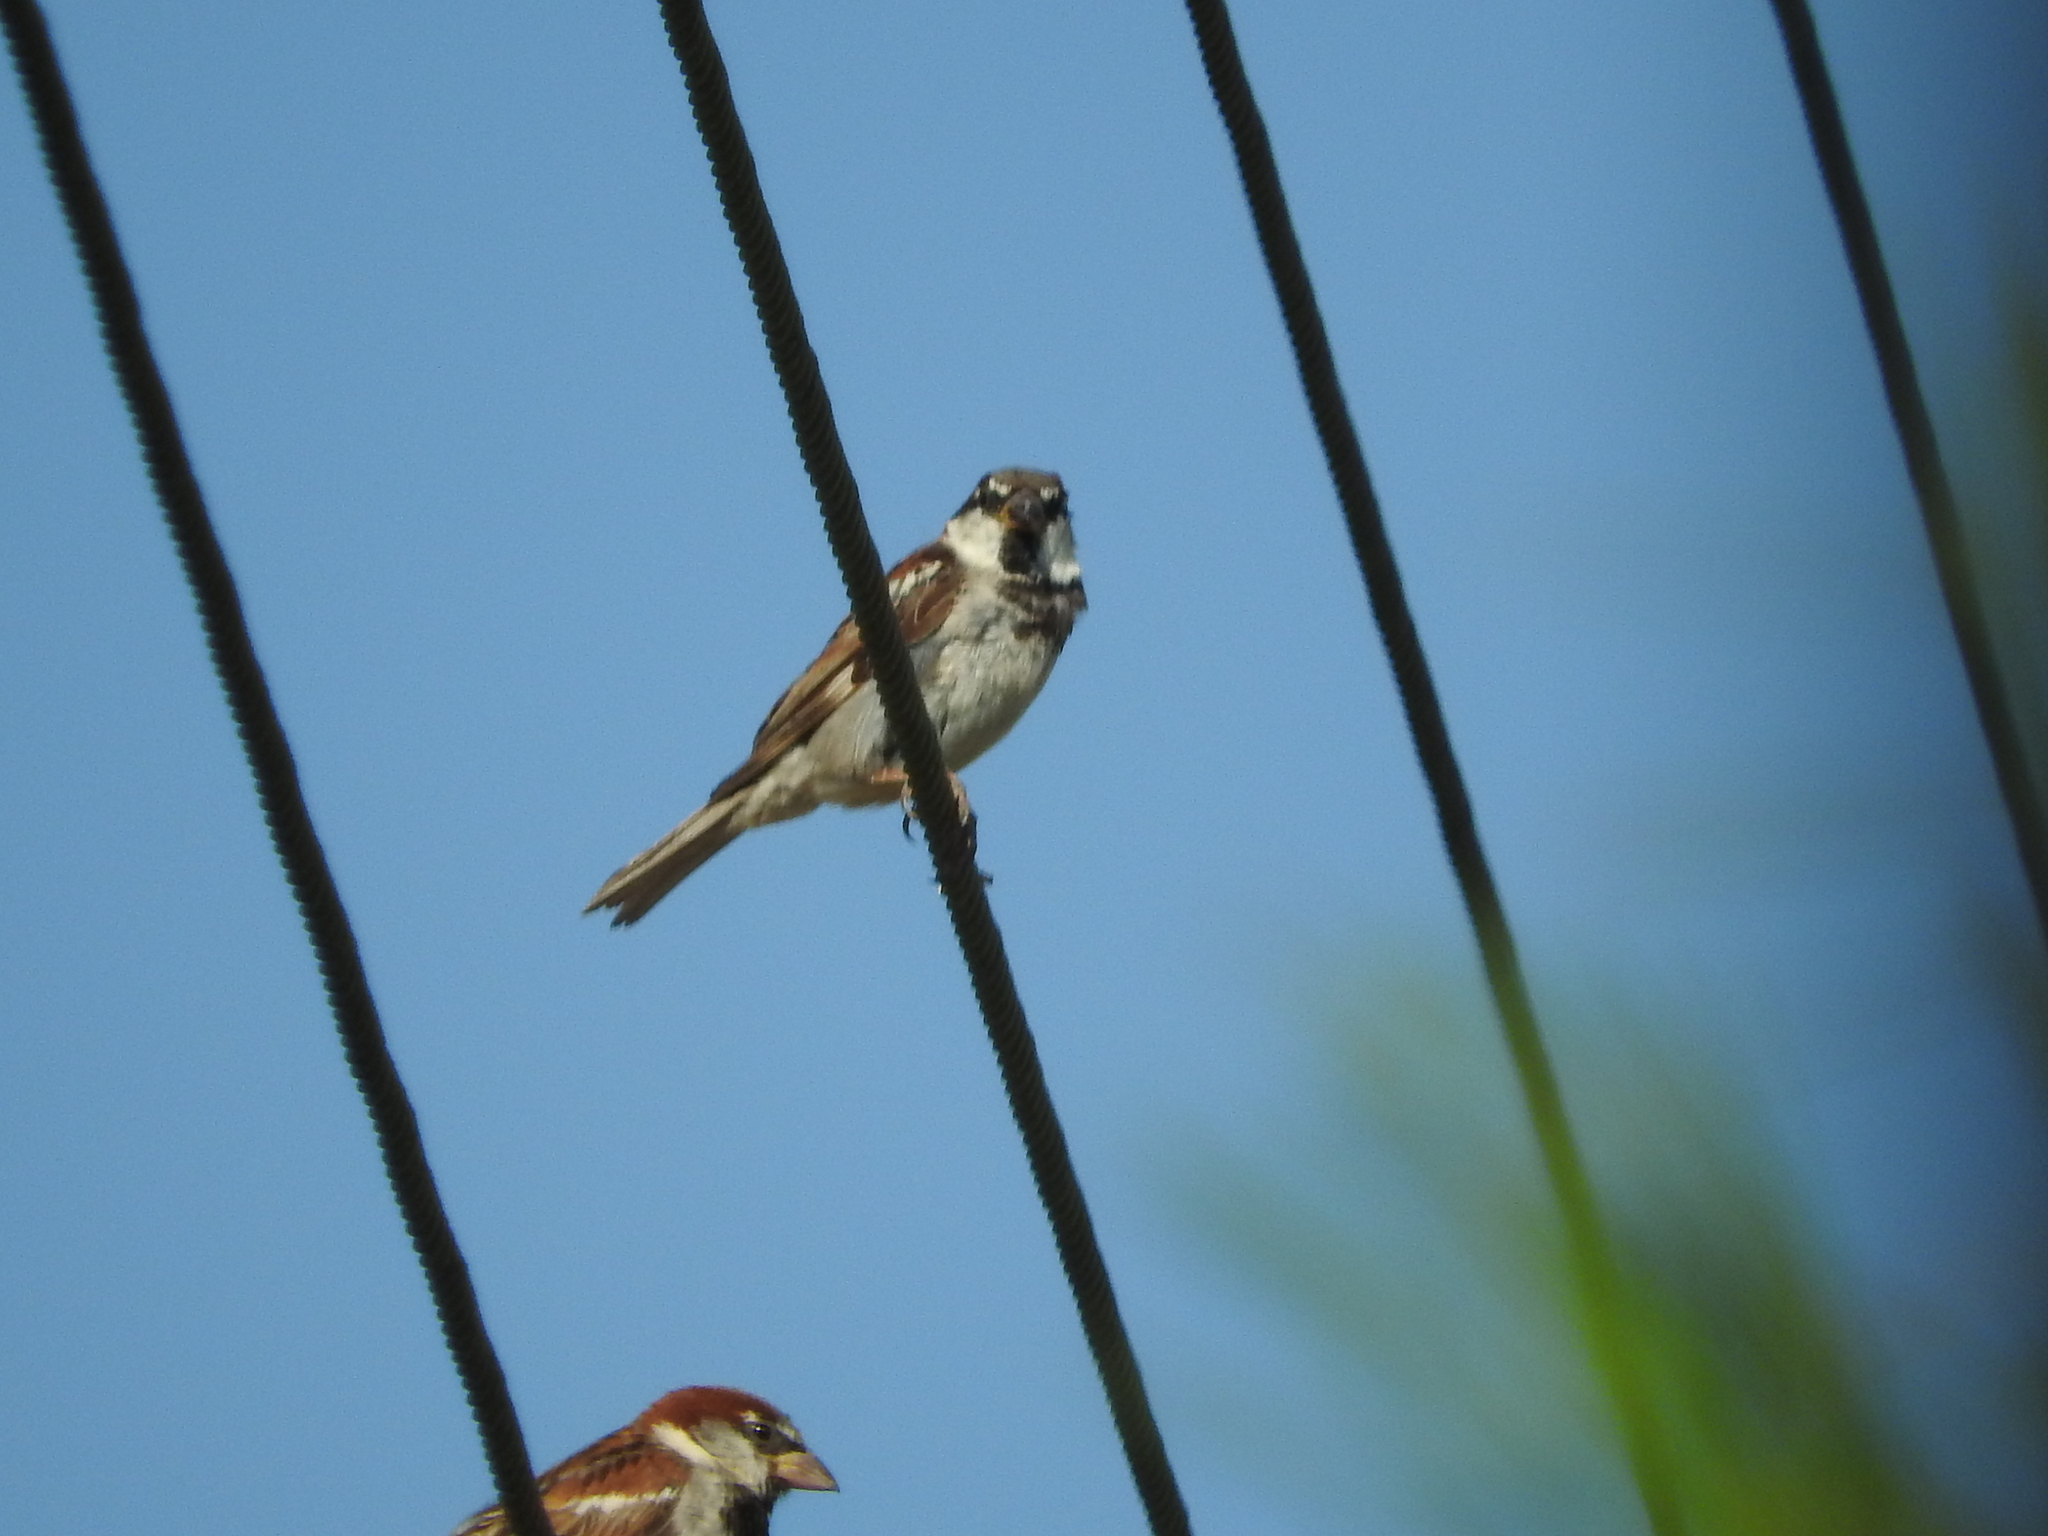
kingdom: Animalia
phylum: Chordata
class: Aves
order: Passeriformes
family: Passeridae
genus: Passer
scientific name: Passer domesticus
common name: House sparrow
